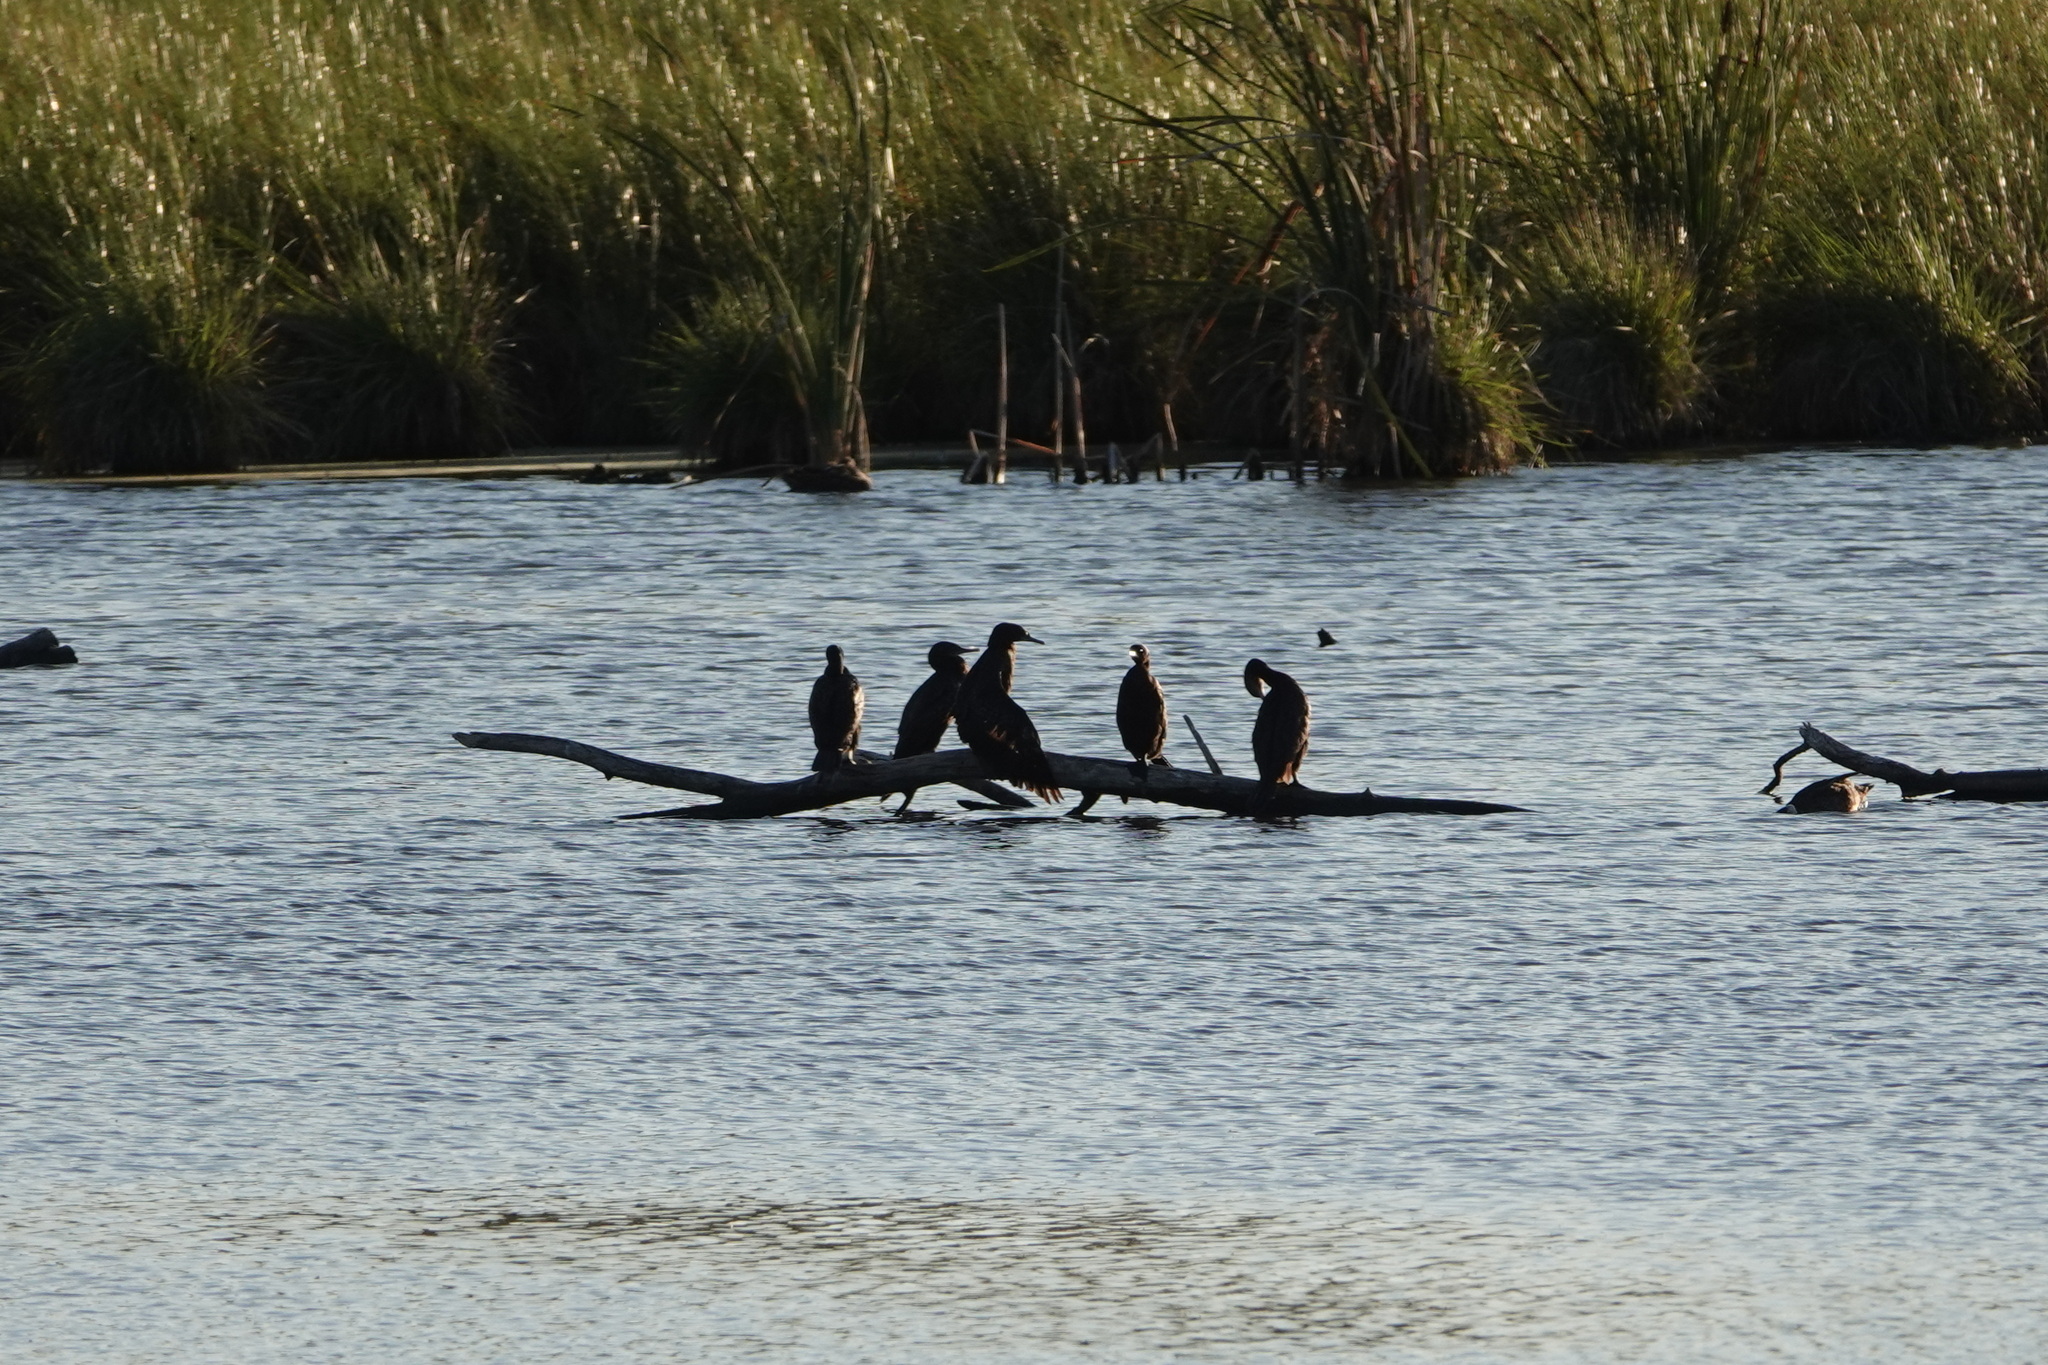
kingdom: Animalia
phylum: Chordata
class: Aves
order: Suliformes
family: Phalacrocoracidae
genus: Phalacrocorax
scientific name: Phalacrocorax sulcirostris
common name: Little black cormorant
